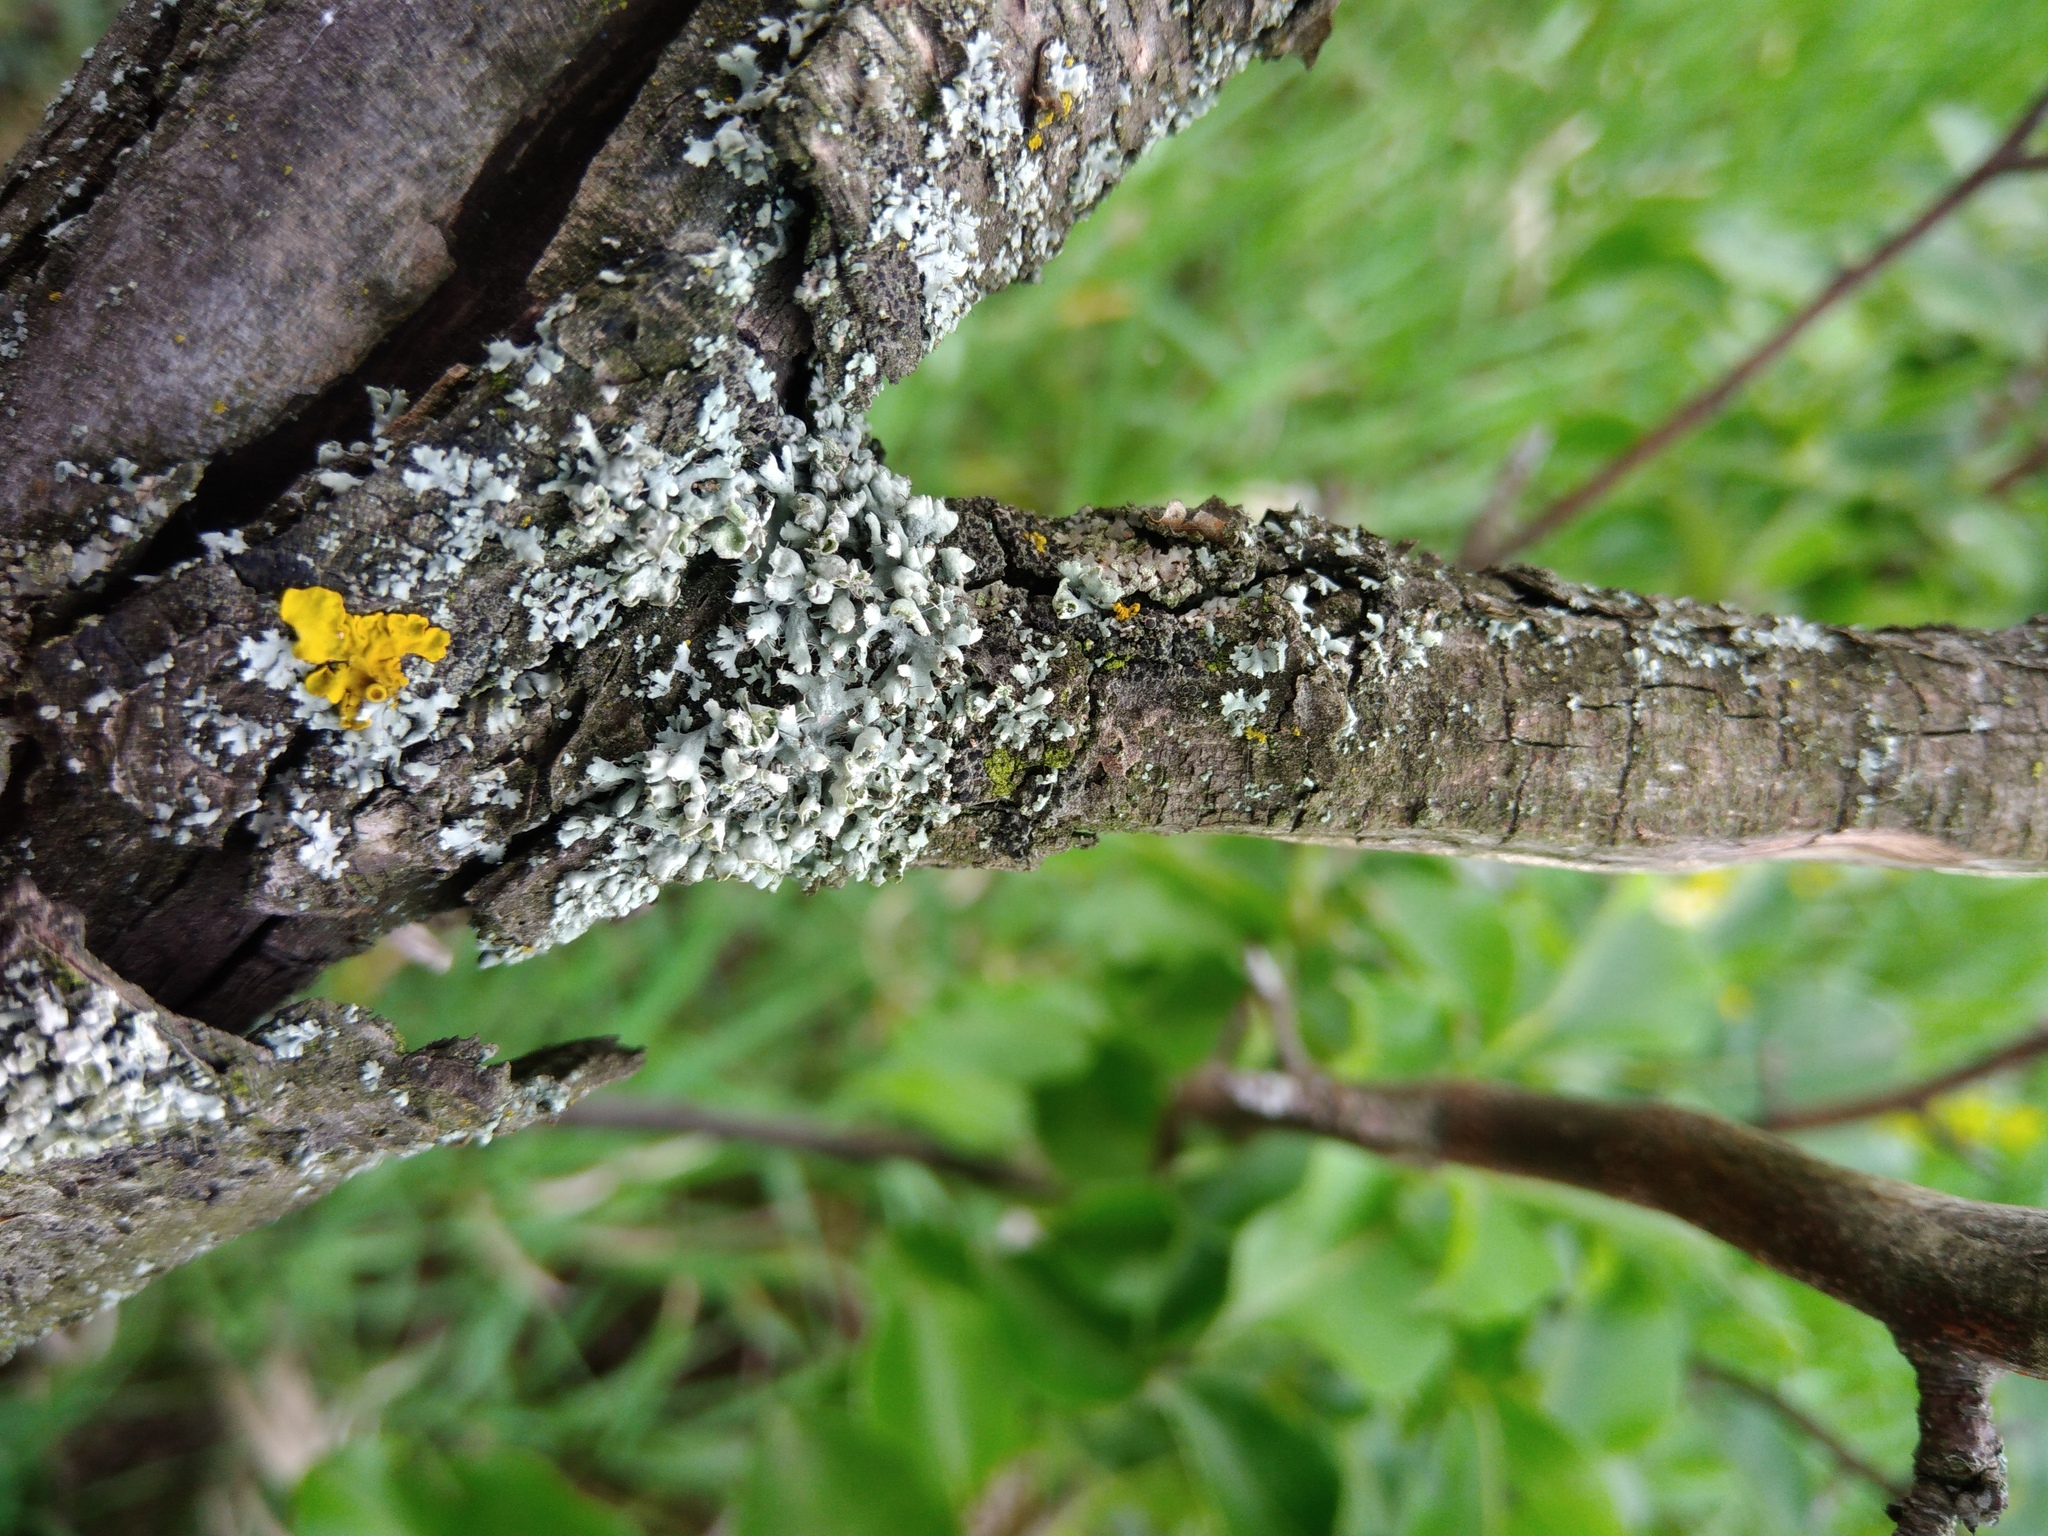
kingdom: Fungi
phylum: Ascomycota
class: Lecanoromycetes
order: Caliciales
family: Physciaceae
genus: Physcia
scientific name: Physcia adscendens
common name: Hooded rosette lichen
